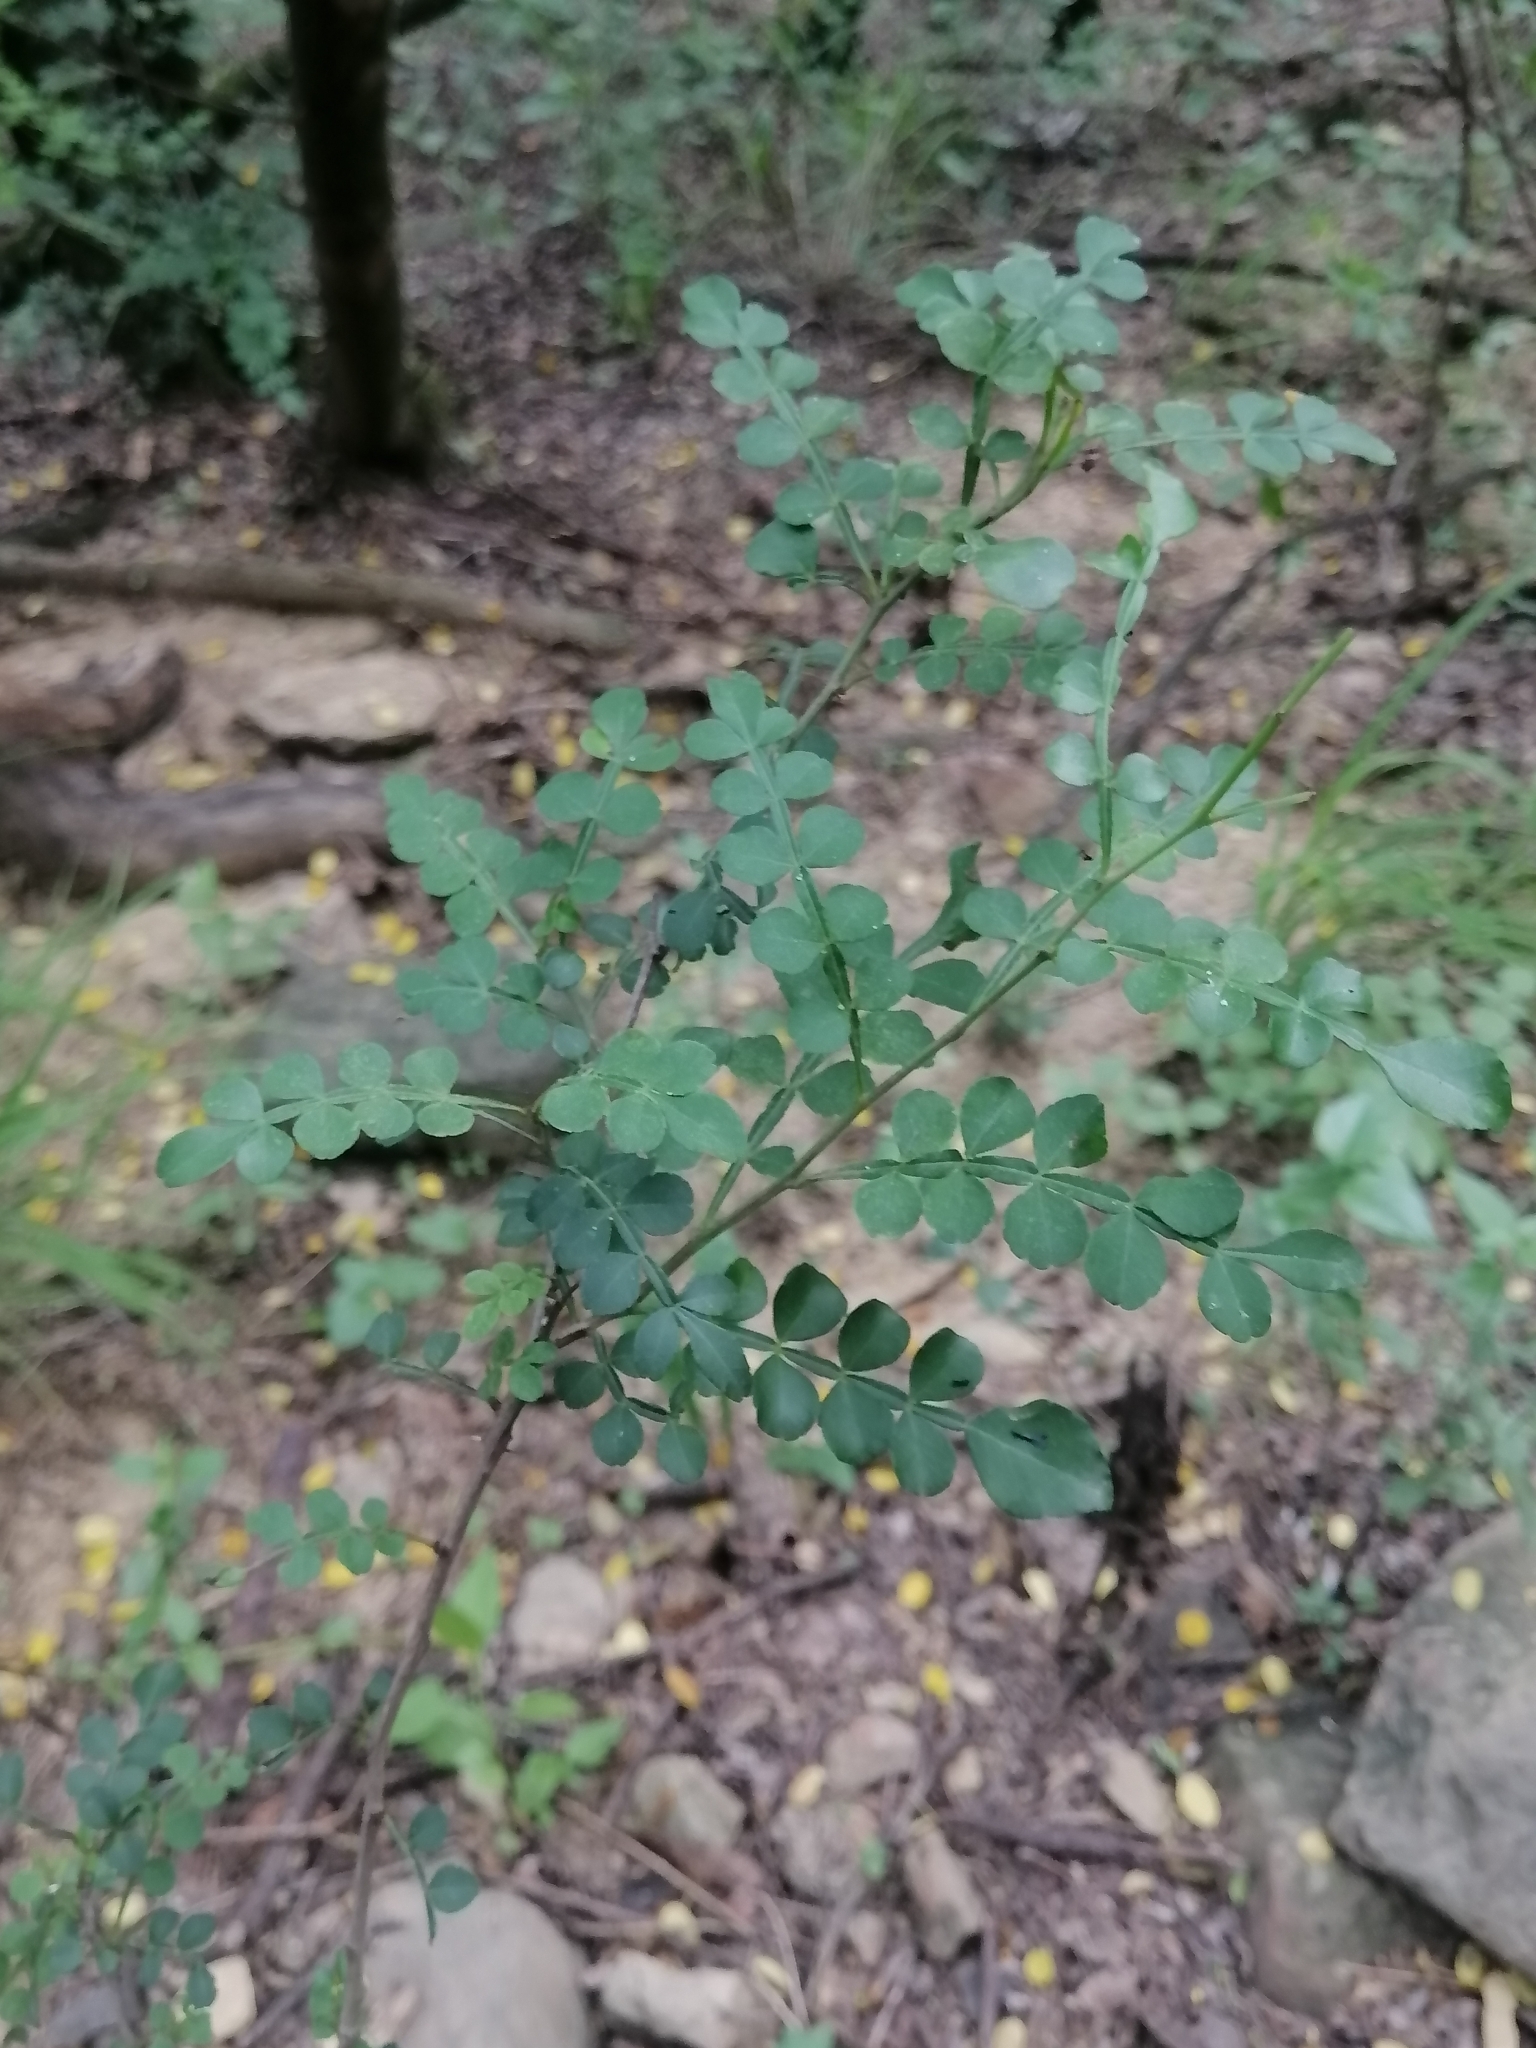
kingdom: Plantae
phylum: Tracheophyta
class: Magnoliopsida
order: Sapindales
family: Rutaceae
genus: Zanthoxylum
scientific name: Zanthoxylum fagara
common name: Lime prickly-ash
